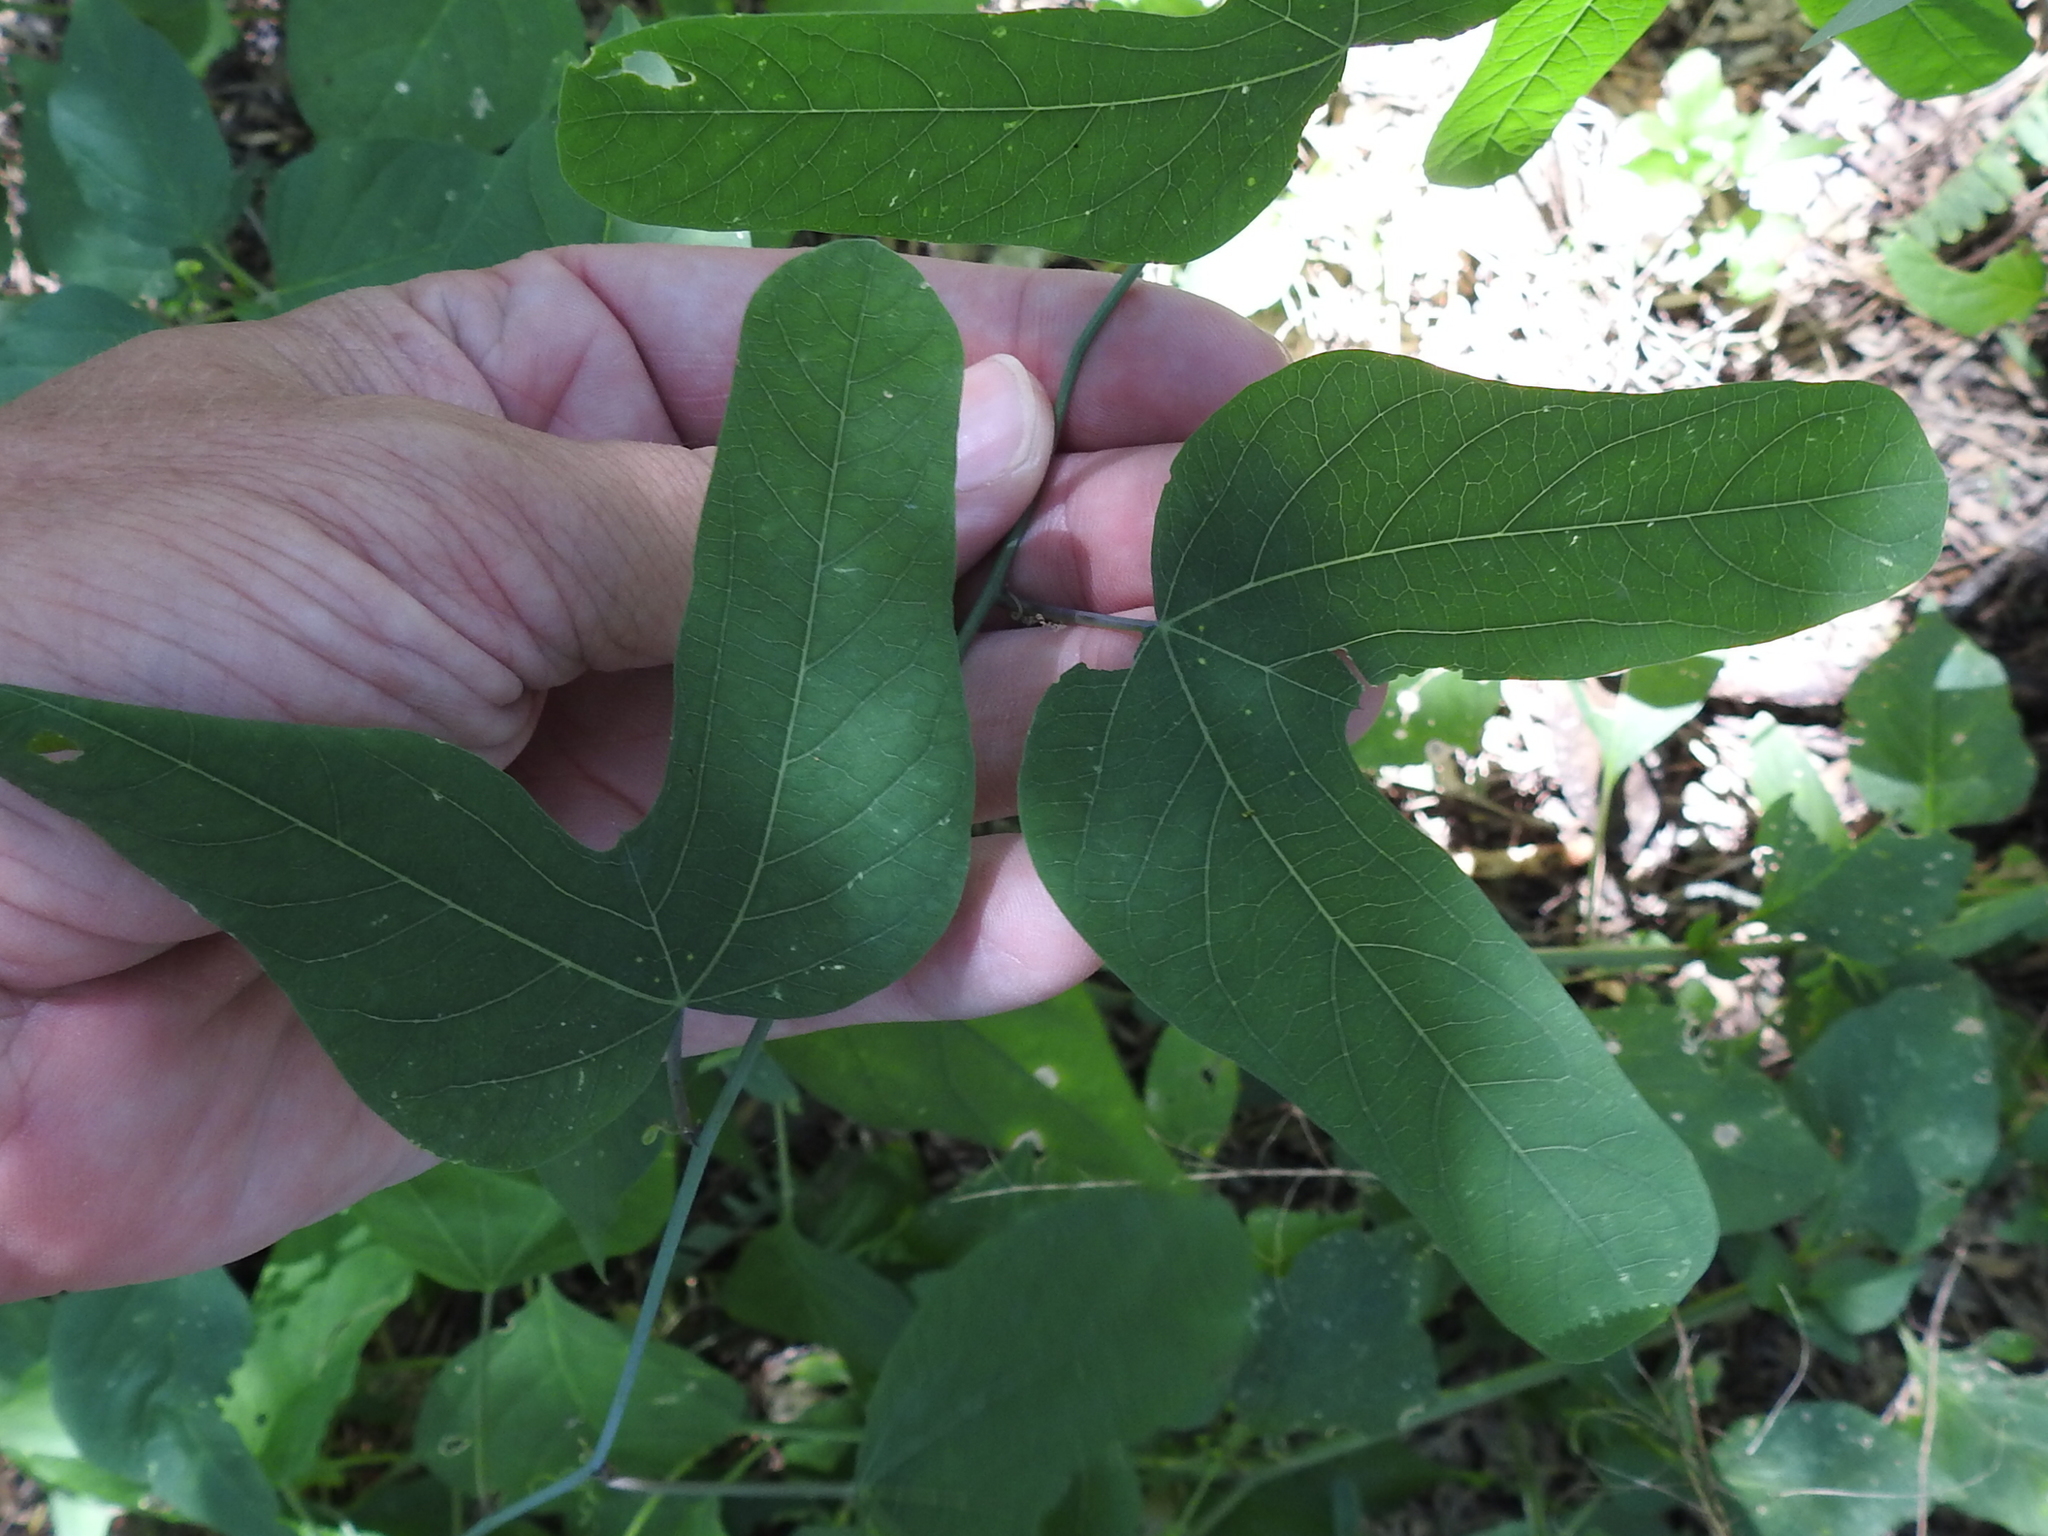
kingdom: Plantae
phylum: Tracheophyta
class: Magnoliopsida
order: Malpighiales
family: Passifloraceae
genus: Passiflora
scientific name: Passiflora mexicana
